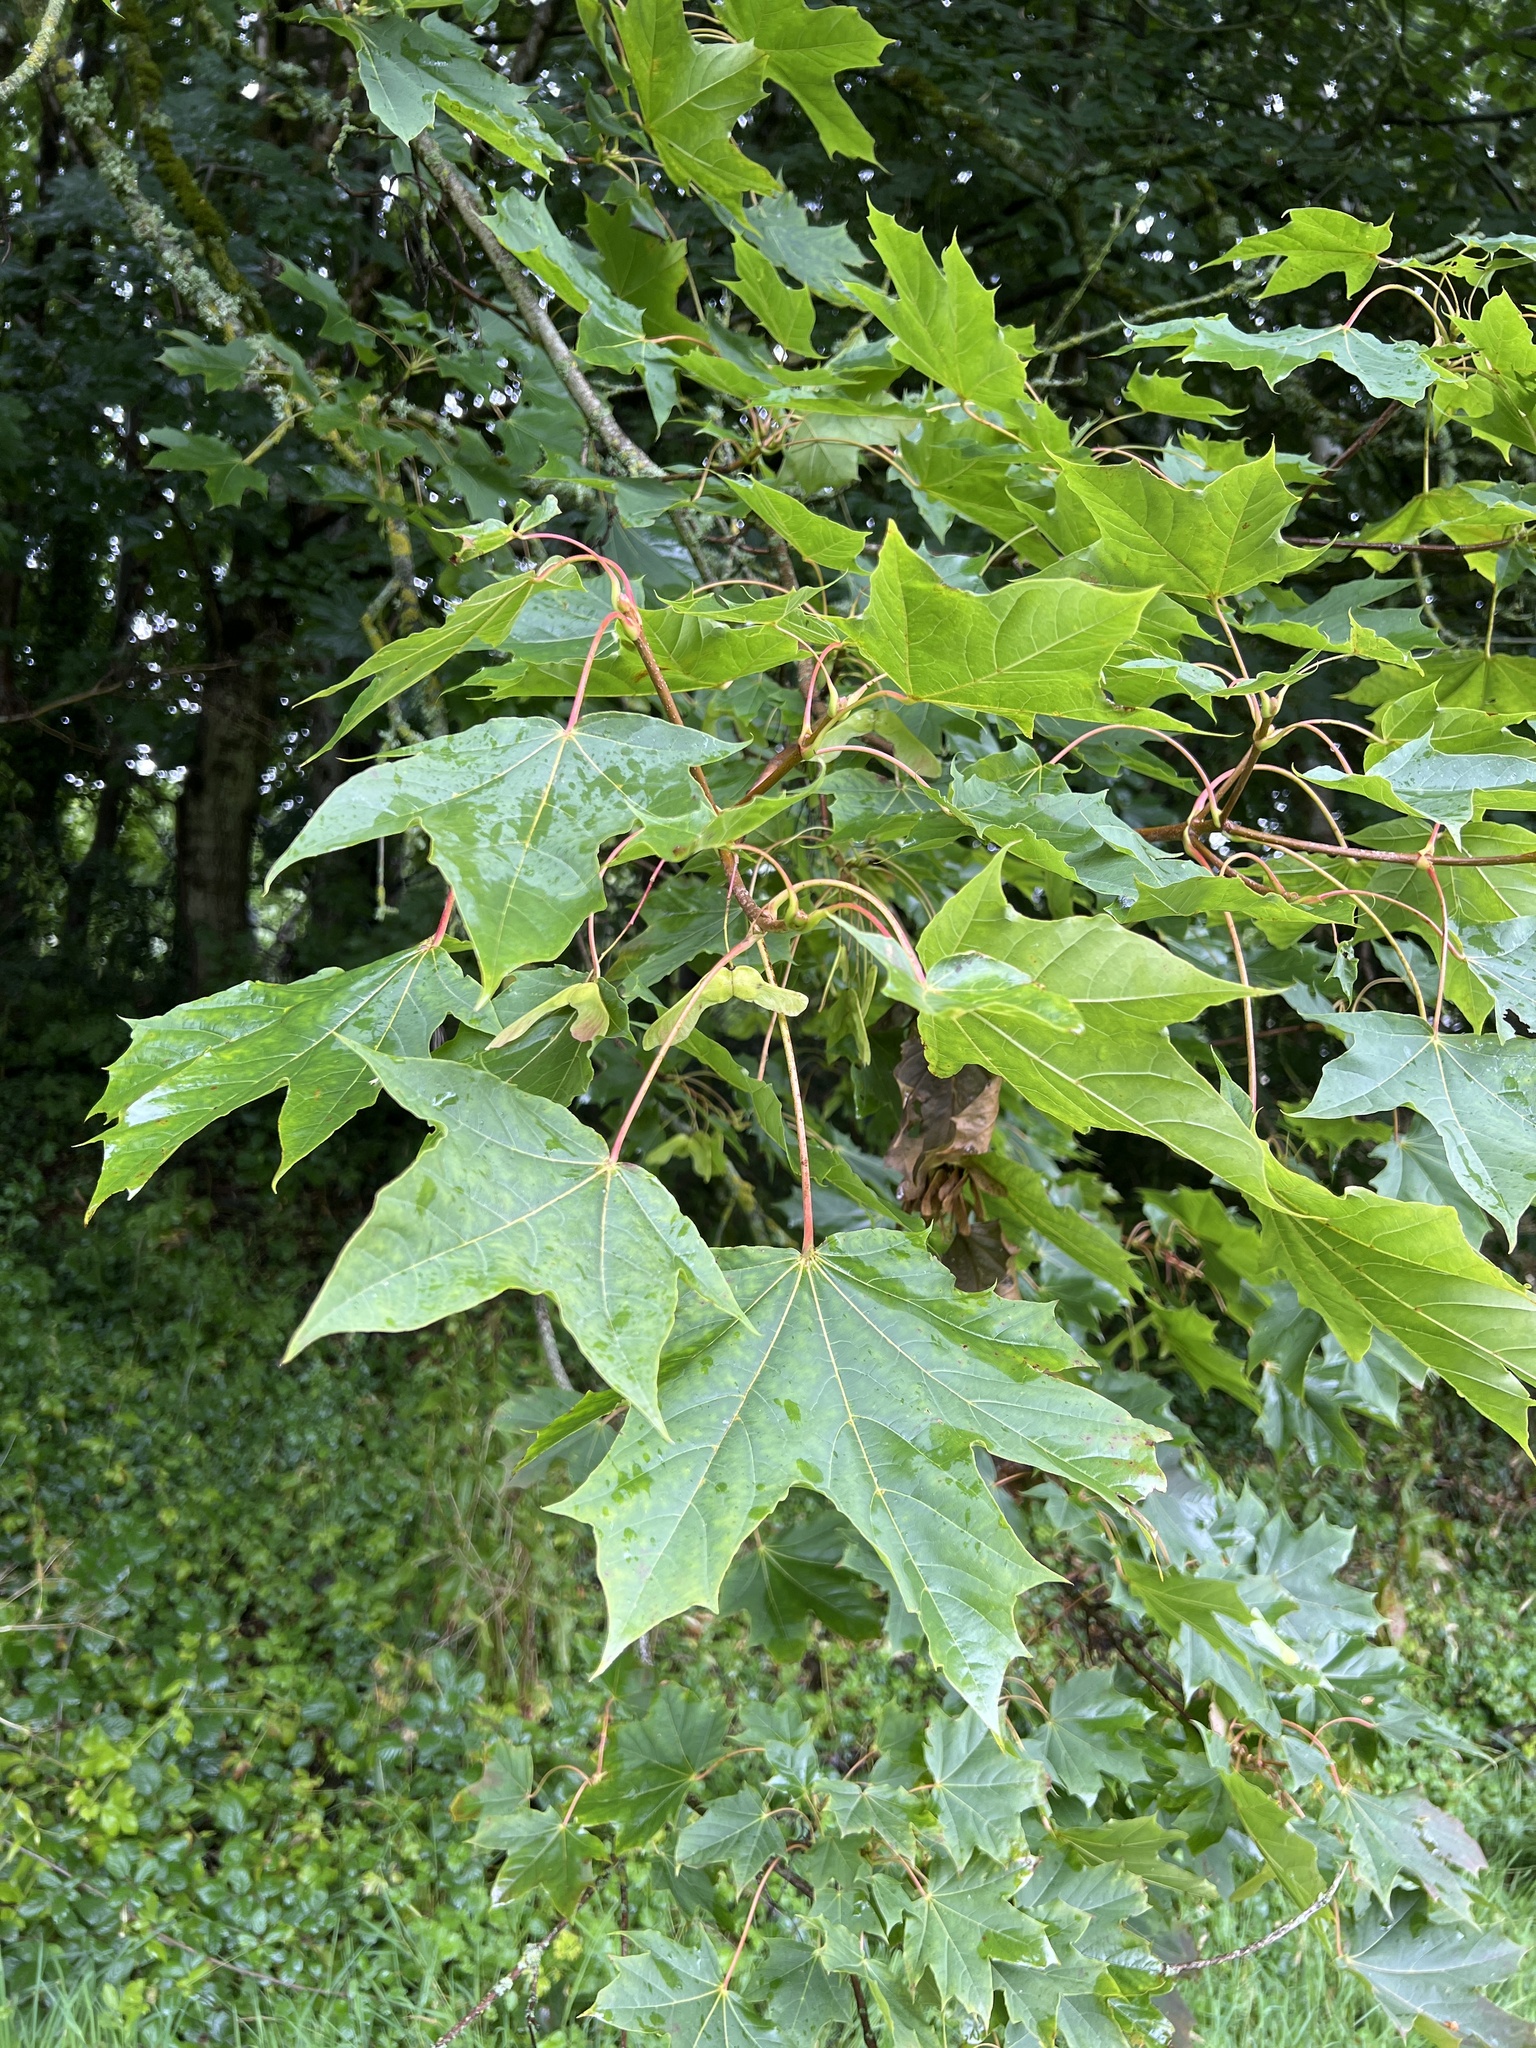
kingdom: Plantae
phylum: Tracheophyta
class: Magnoliopsida
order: Sapindales
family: Sapindaceae
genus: Acer
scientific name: Acer platanoides
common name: Norway maple
